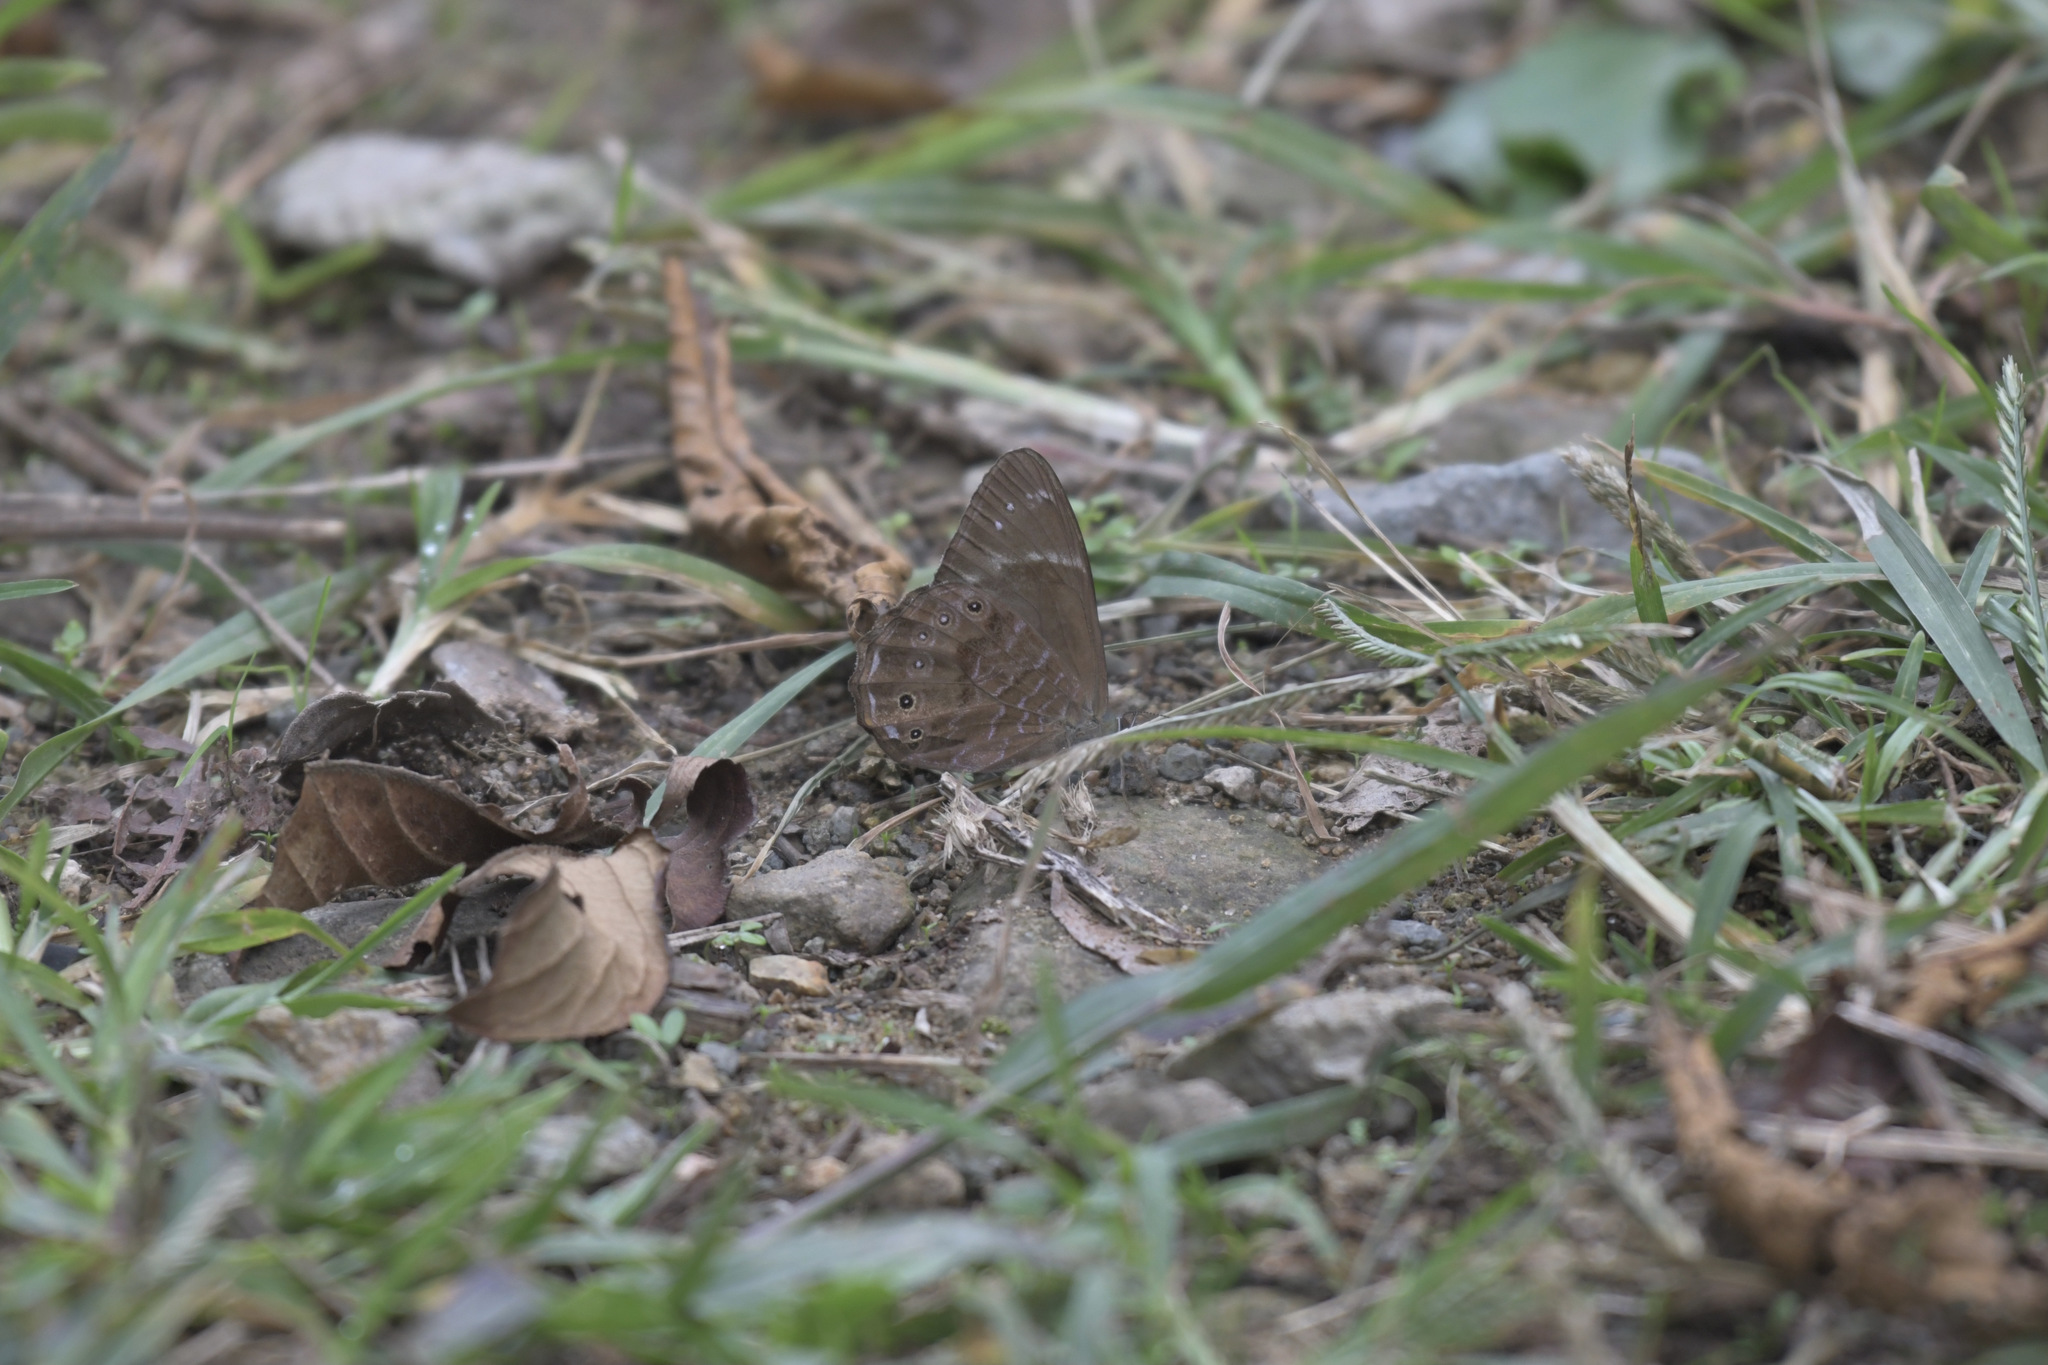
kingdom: Animalia
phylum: Arthropoda
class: Insecta
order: Lepidoptera
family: Nymphalidae
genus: Lethe
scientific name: Lethe violaceopicta
